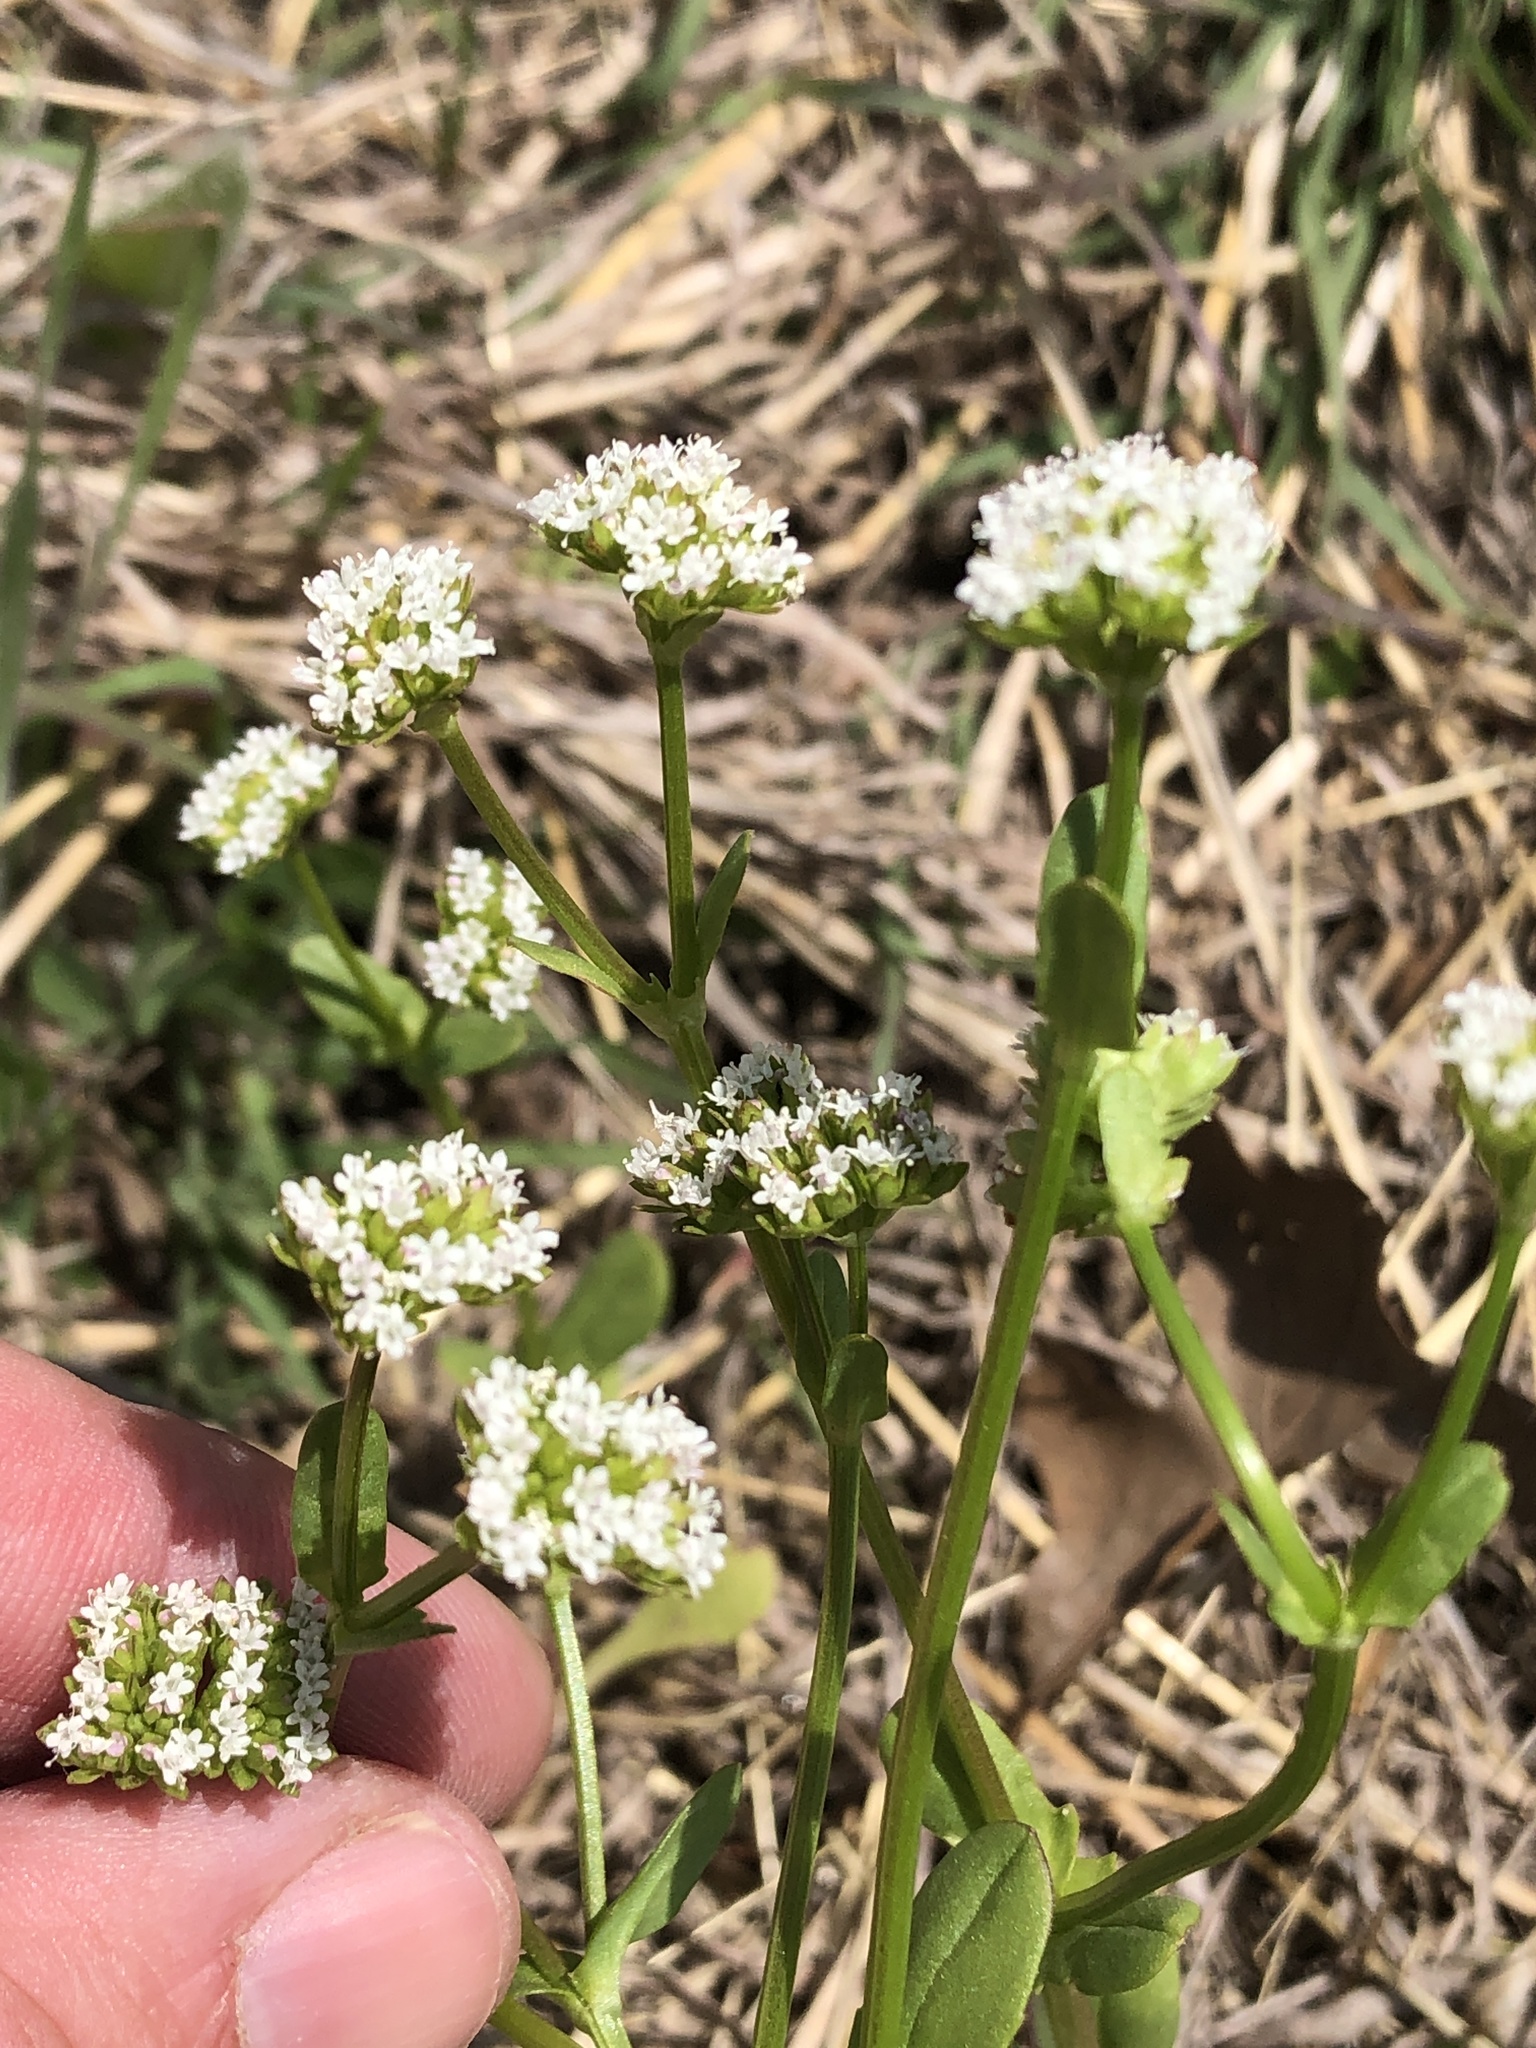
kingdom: Plantae
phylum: Tracheophyta
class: Magnoliopsida
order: Dipsacales
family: Caprifoliaceae
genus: Valerianella
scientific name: Valerianella radiata
